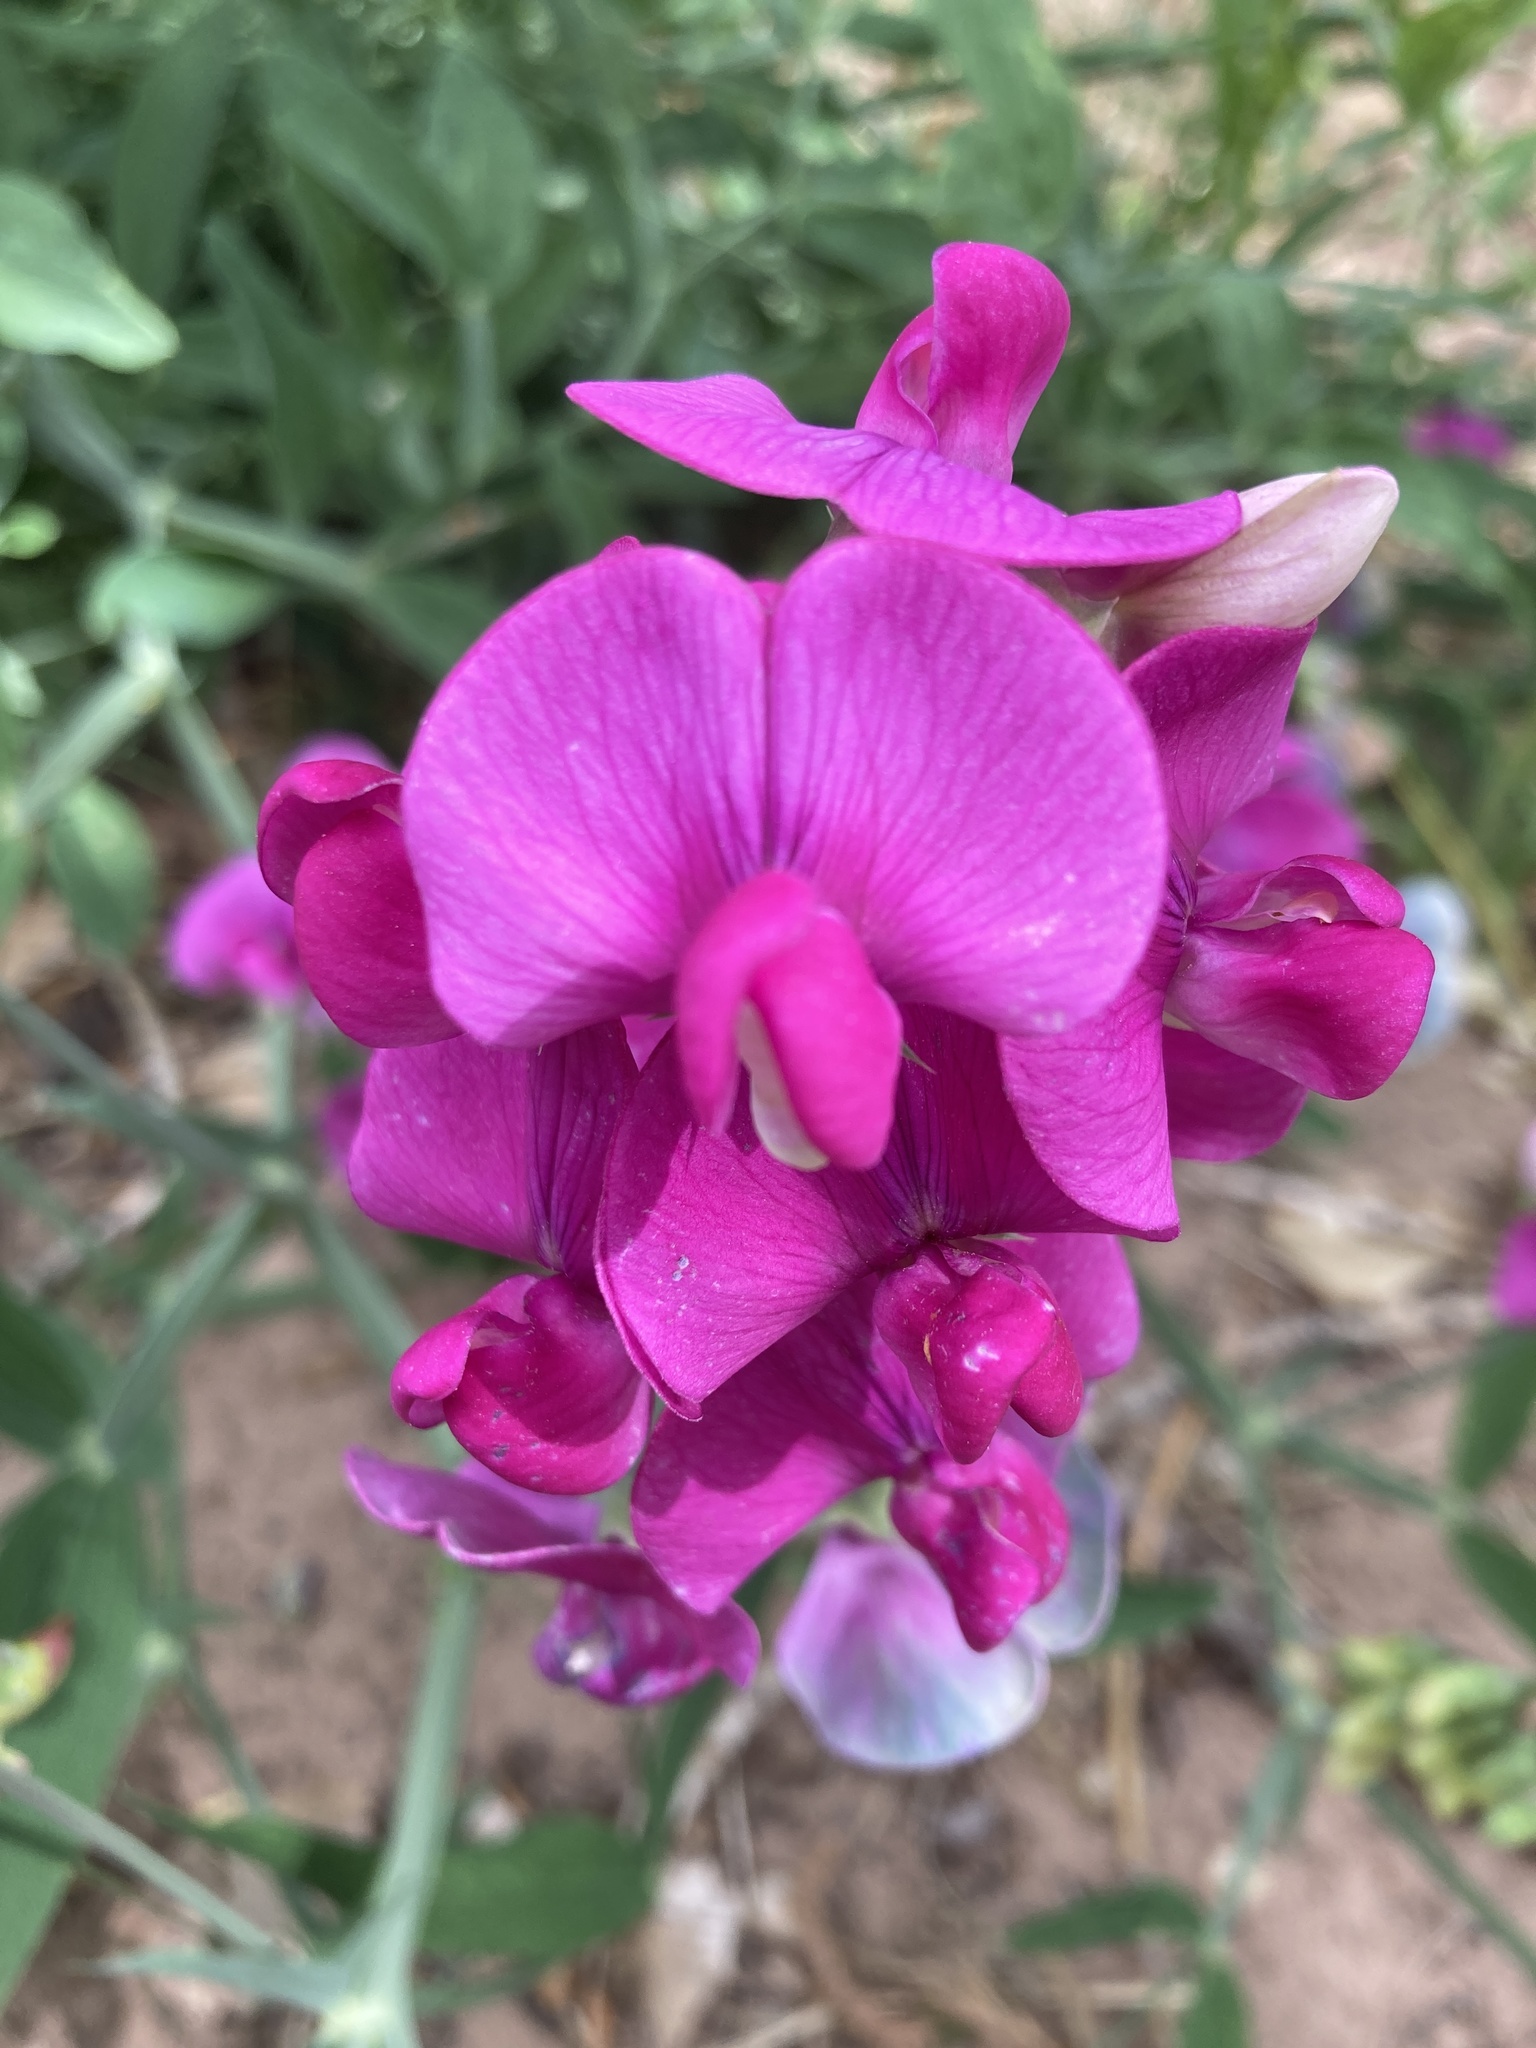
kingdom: Plantae
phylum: Tracheophyta
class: Magnoliopsida
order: Fabales
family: Fabaceae
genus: Lathyrus
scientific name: Lathyrus latifolius
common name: Perennial pea
